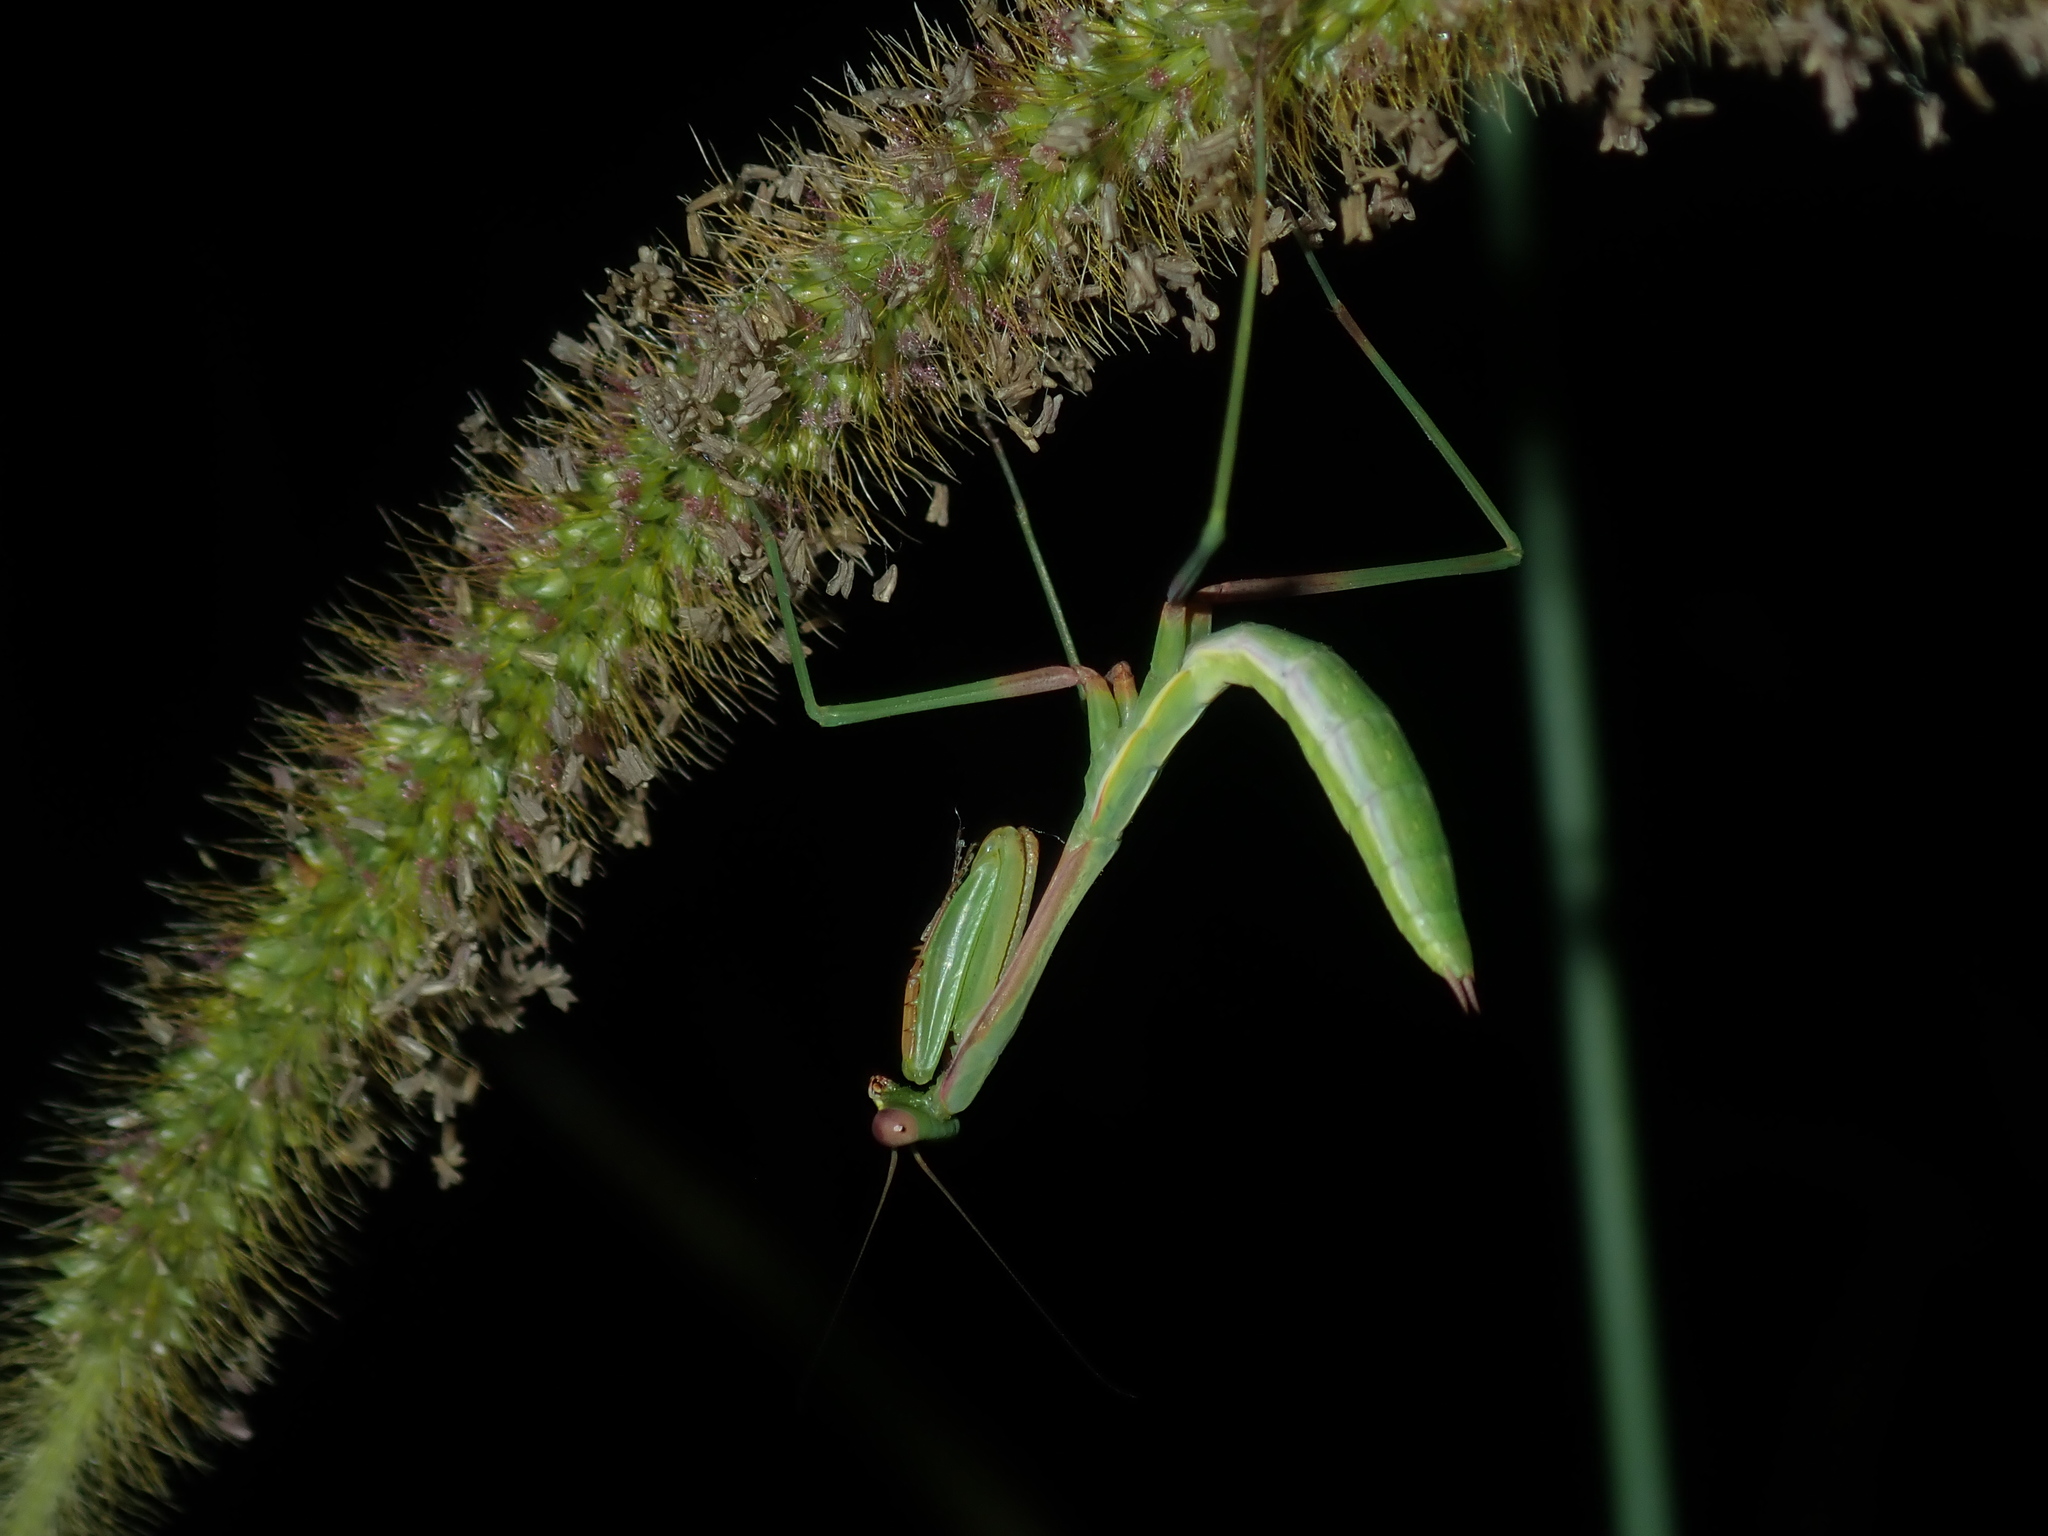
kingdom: Animalia
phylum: Arthropoda
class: Insecta
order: Mantodea
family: Mantidae
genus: Pseudomantis
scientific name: Pseudomantis albofimbriata
